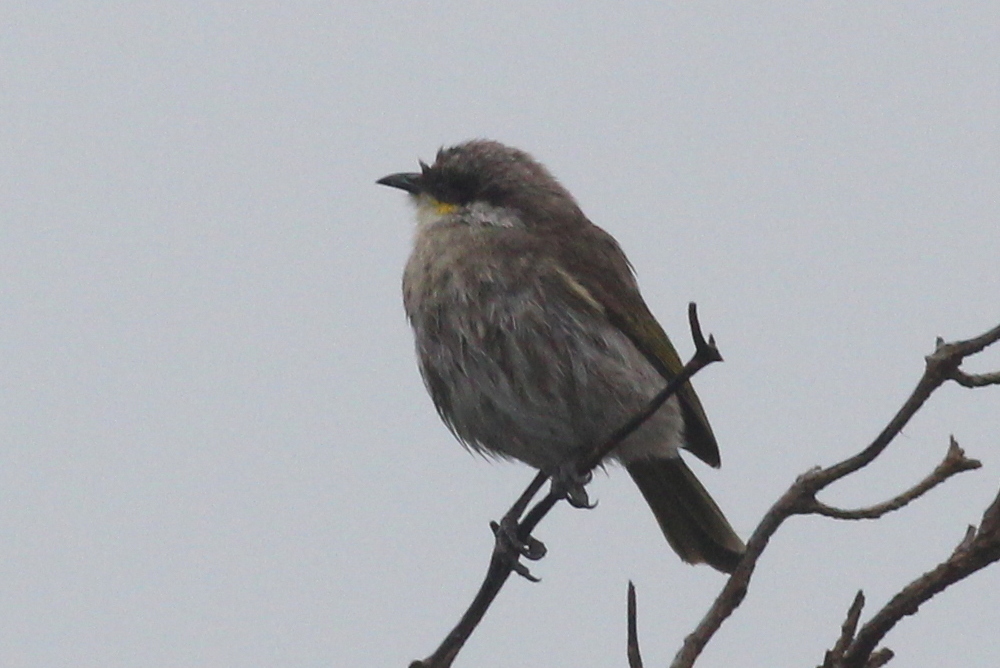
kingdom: Animalia
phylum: Chordata
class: Aves
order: Passeriformes
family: Meliphagidae
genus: Gavicalis
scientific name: Gavicalis virescens
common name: Singing honeyeater
